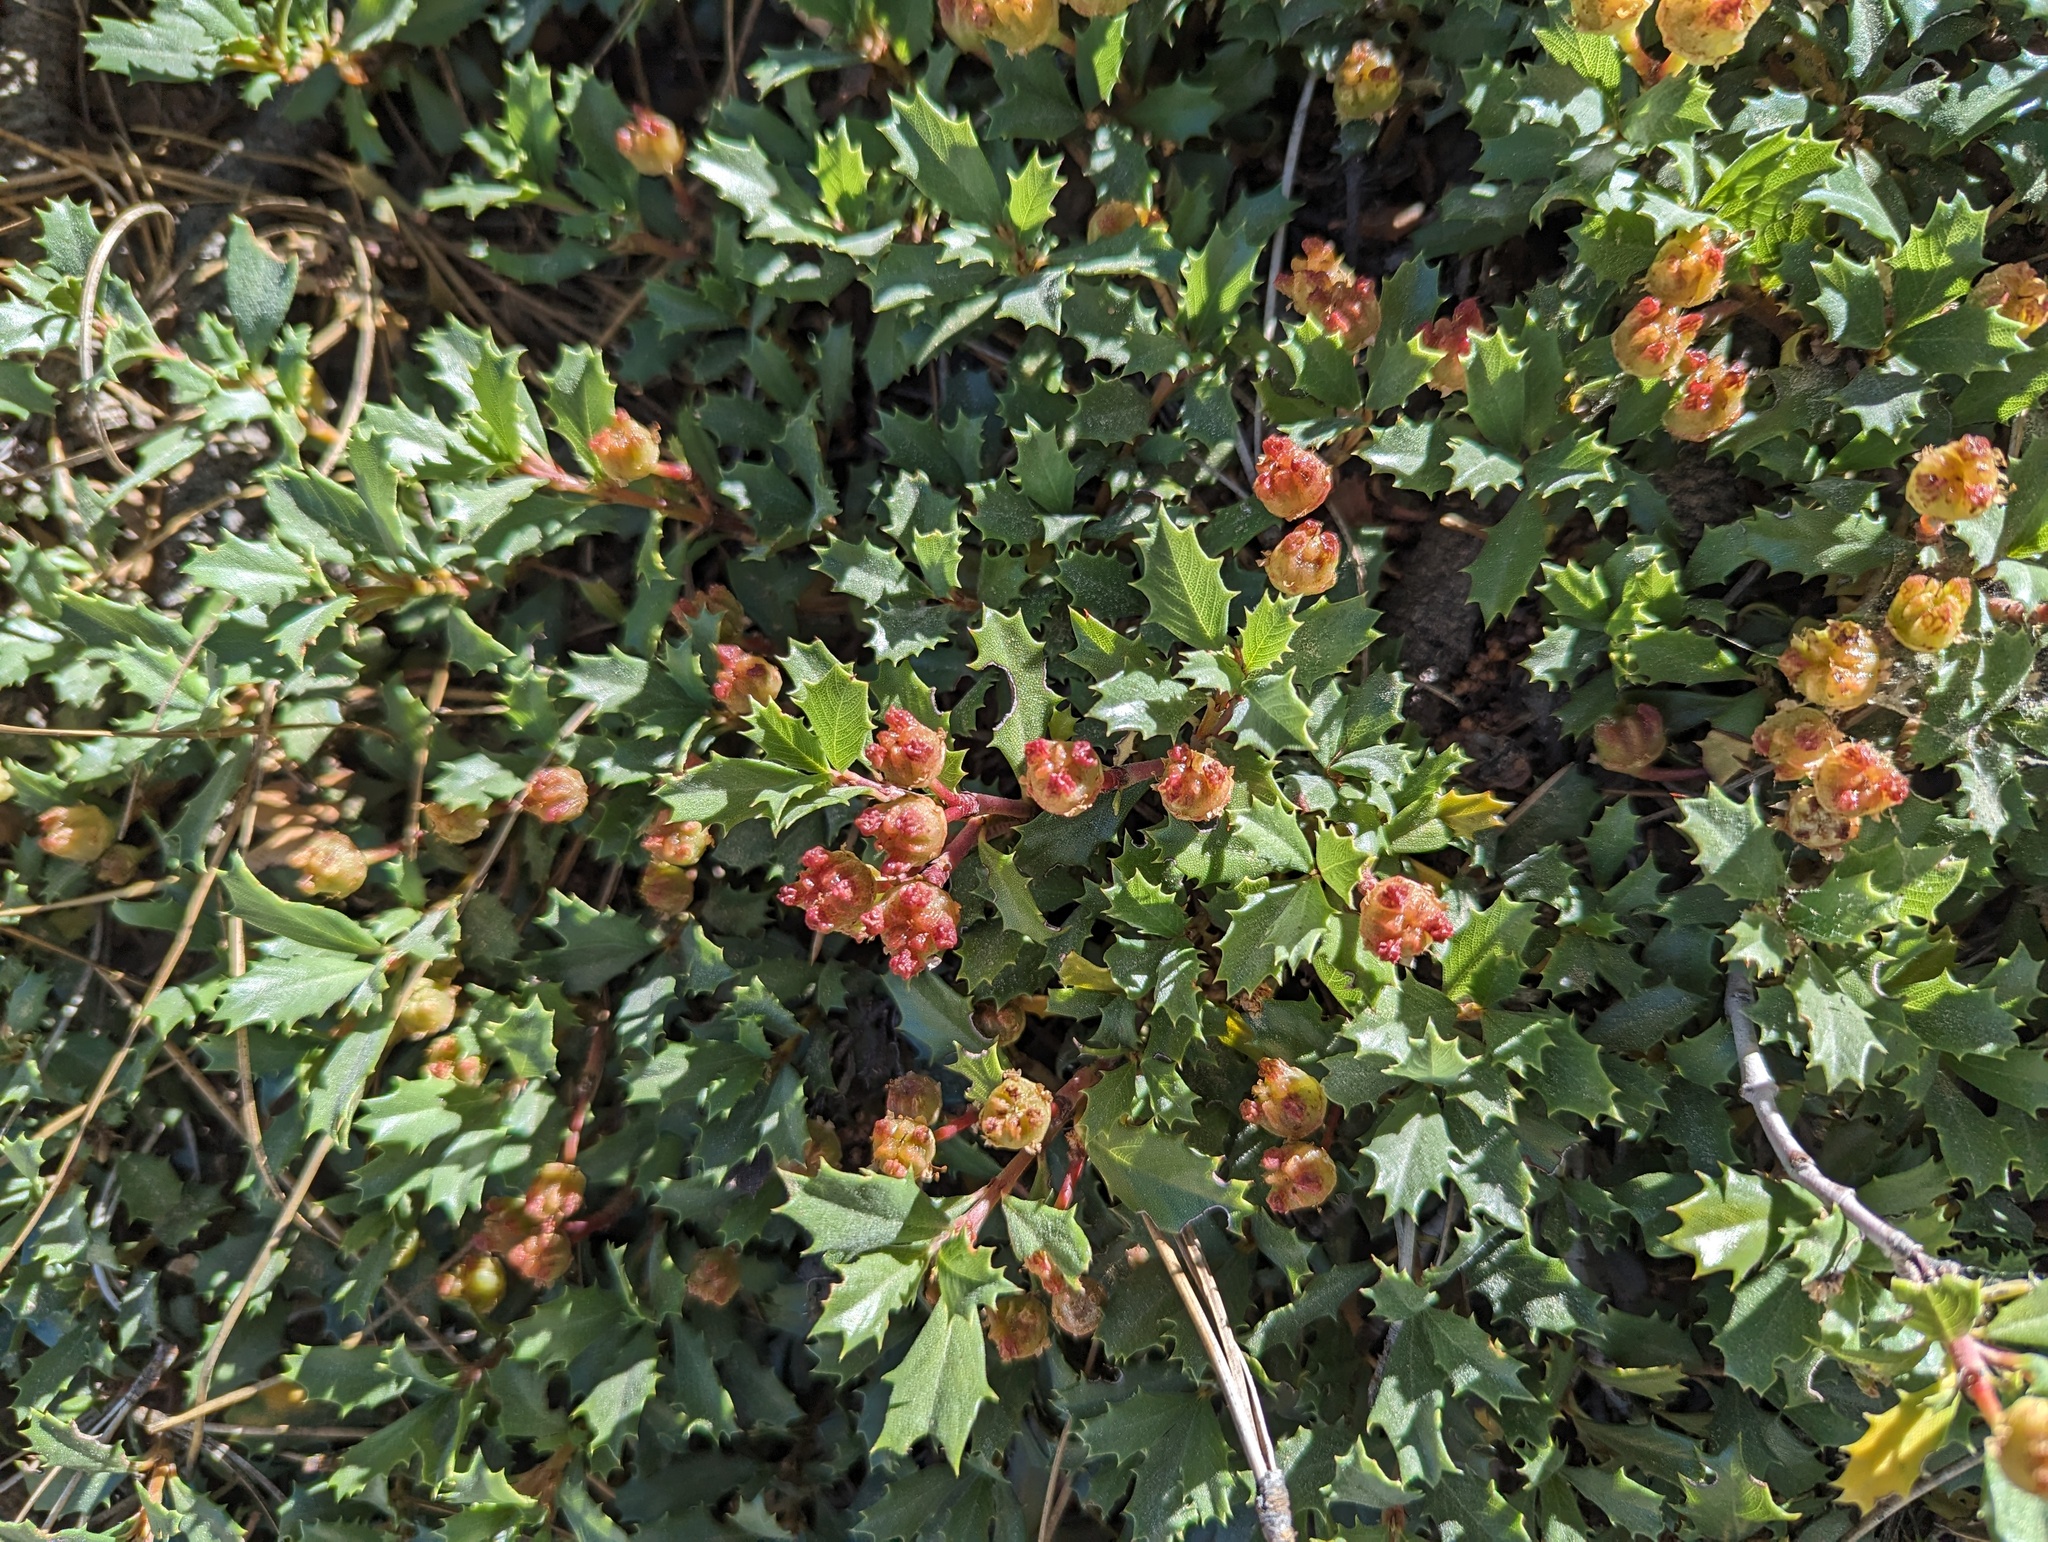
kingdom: Plantae
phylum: Tracheophyta
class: Magnoliopsida
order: Rosales
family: Rhamnaceae
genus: Ceanothus
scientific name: Ceanothus prostratus
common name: Mahala-mat
